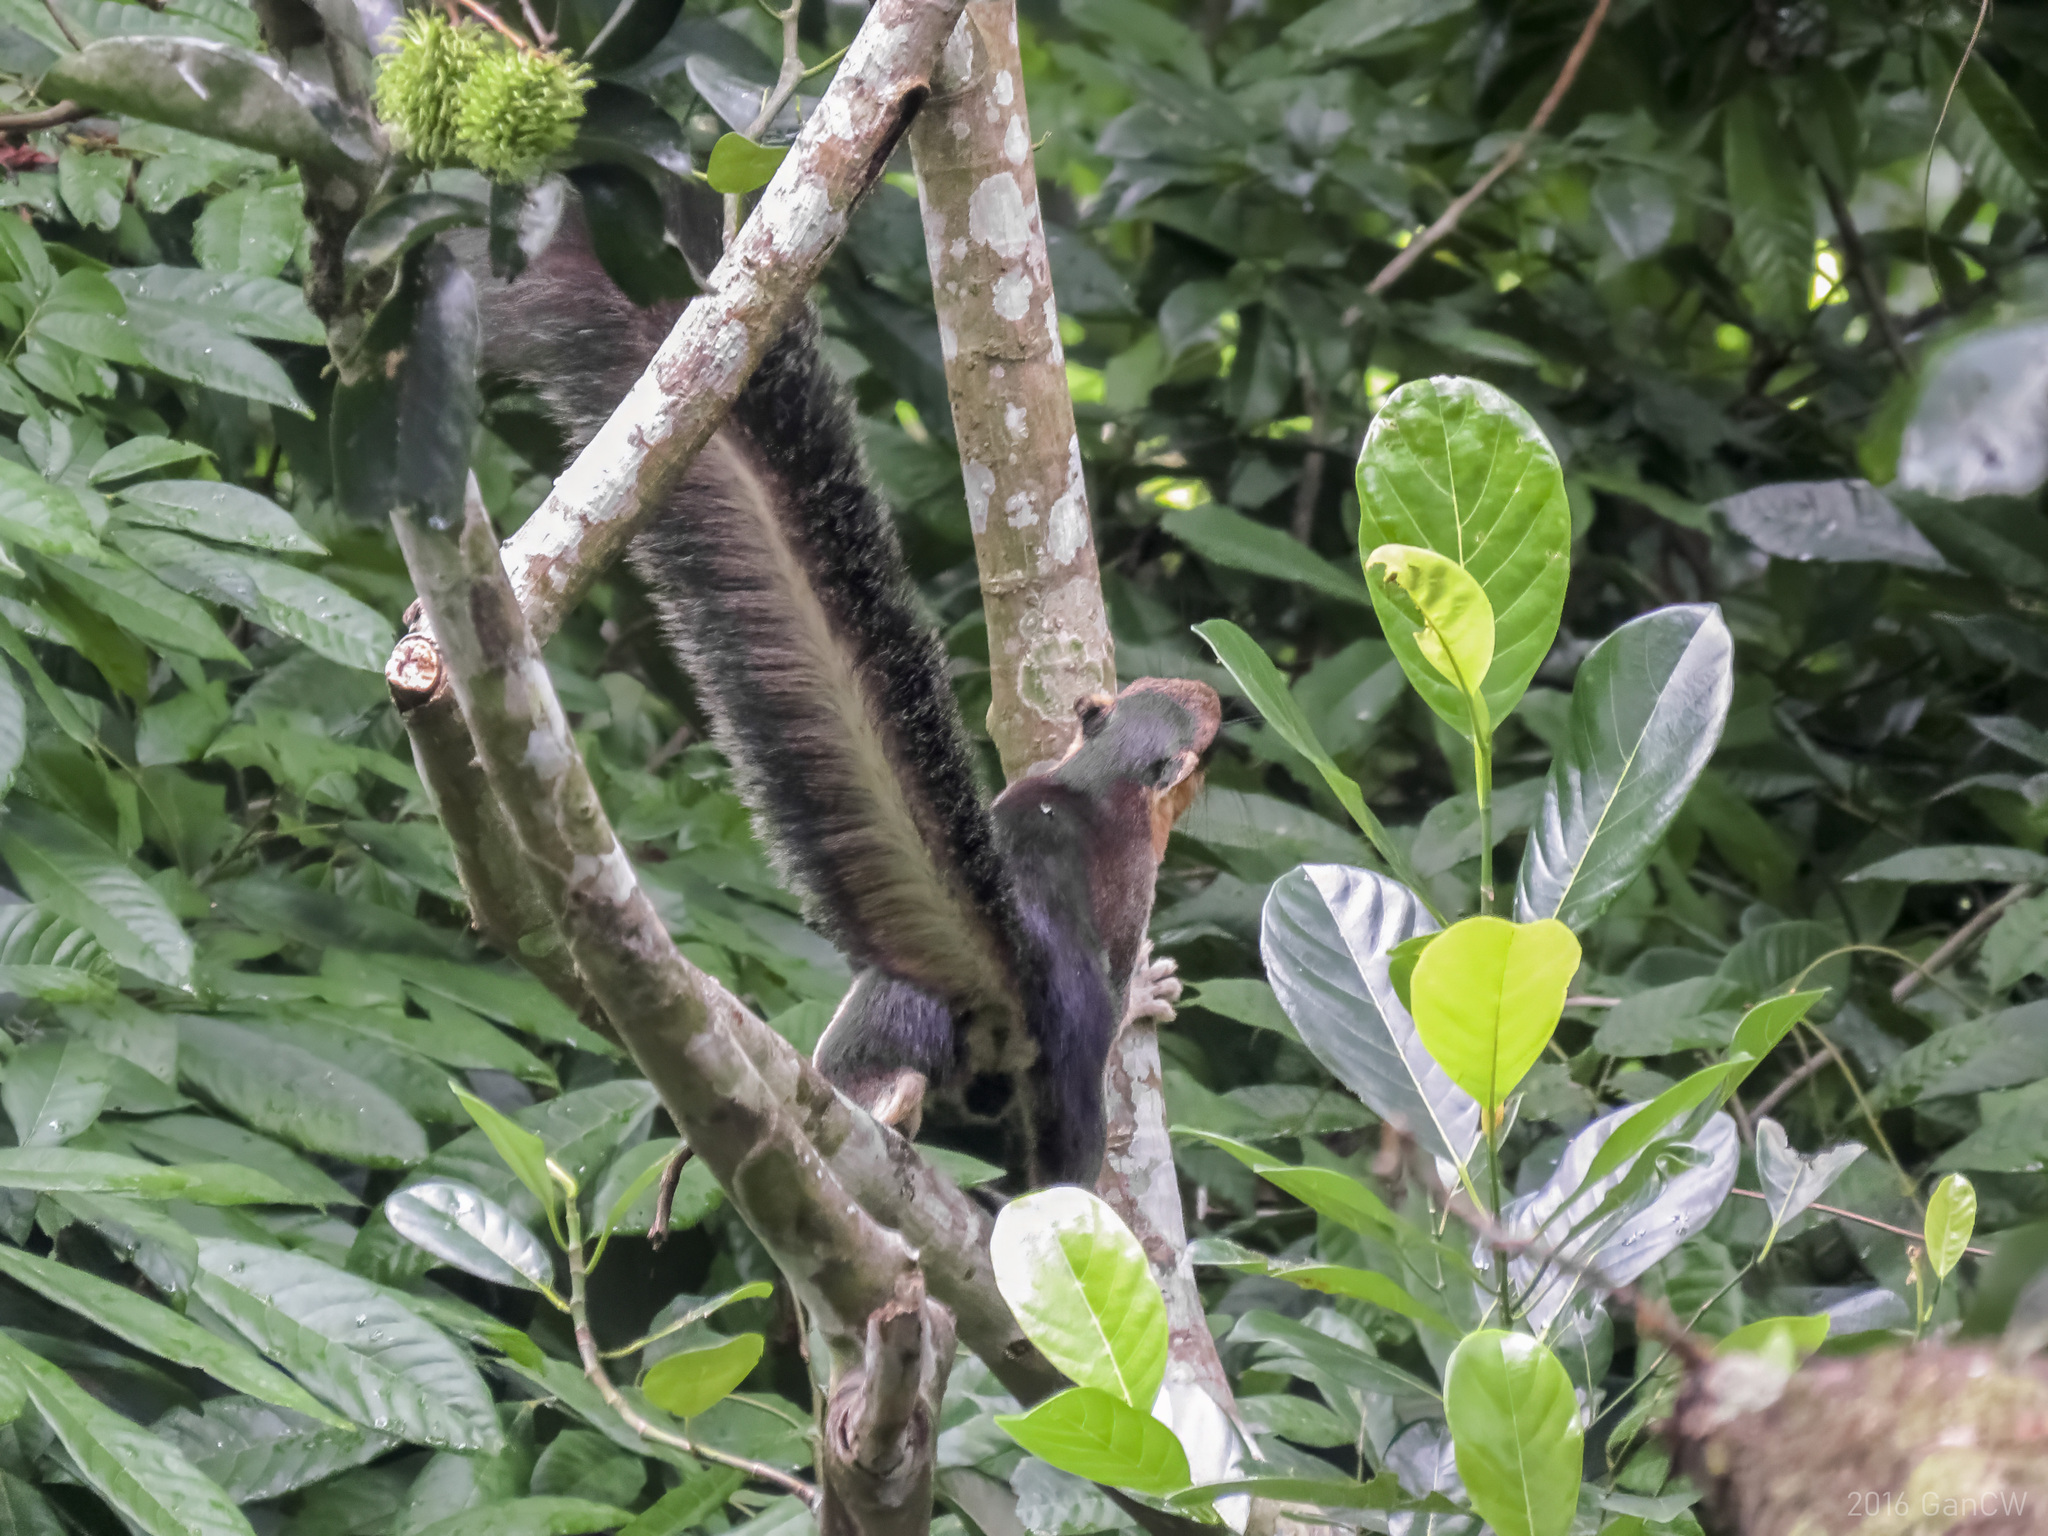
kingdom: Animalia
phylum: Chordata
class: Mammalia
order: Rodentia
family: Sciuridae
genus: Ratufa
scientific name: Ratufa affinis
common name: Pale giant squirrel
